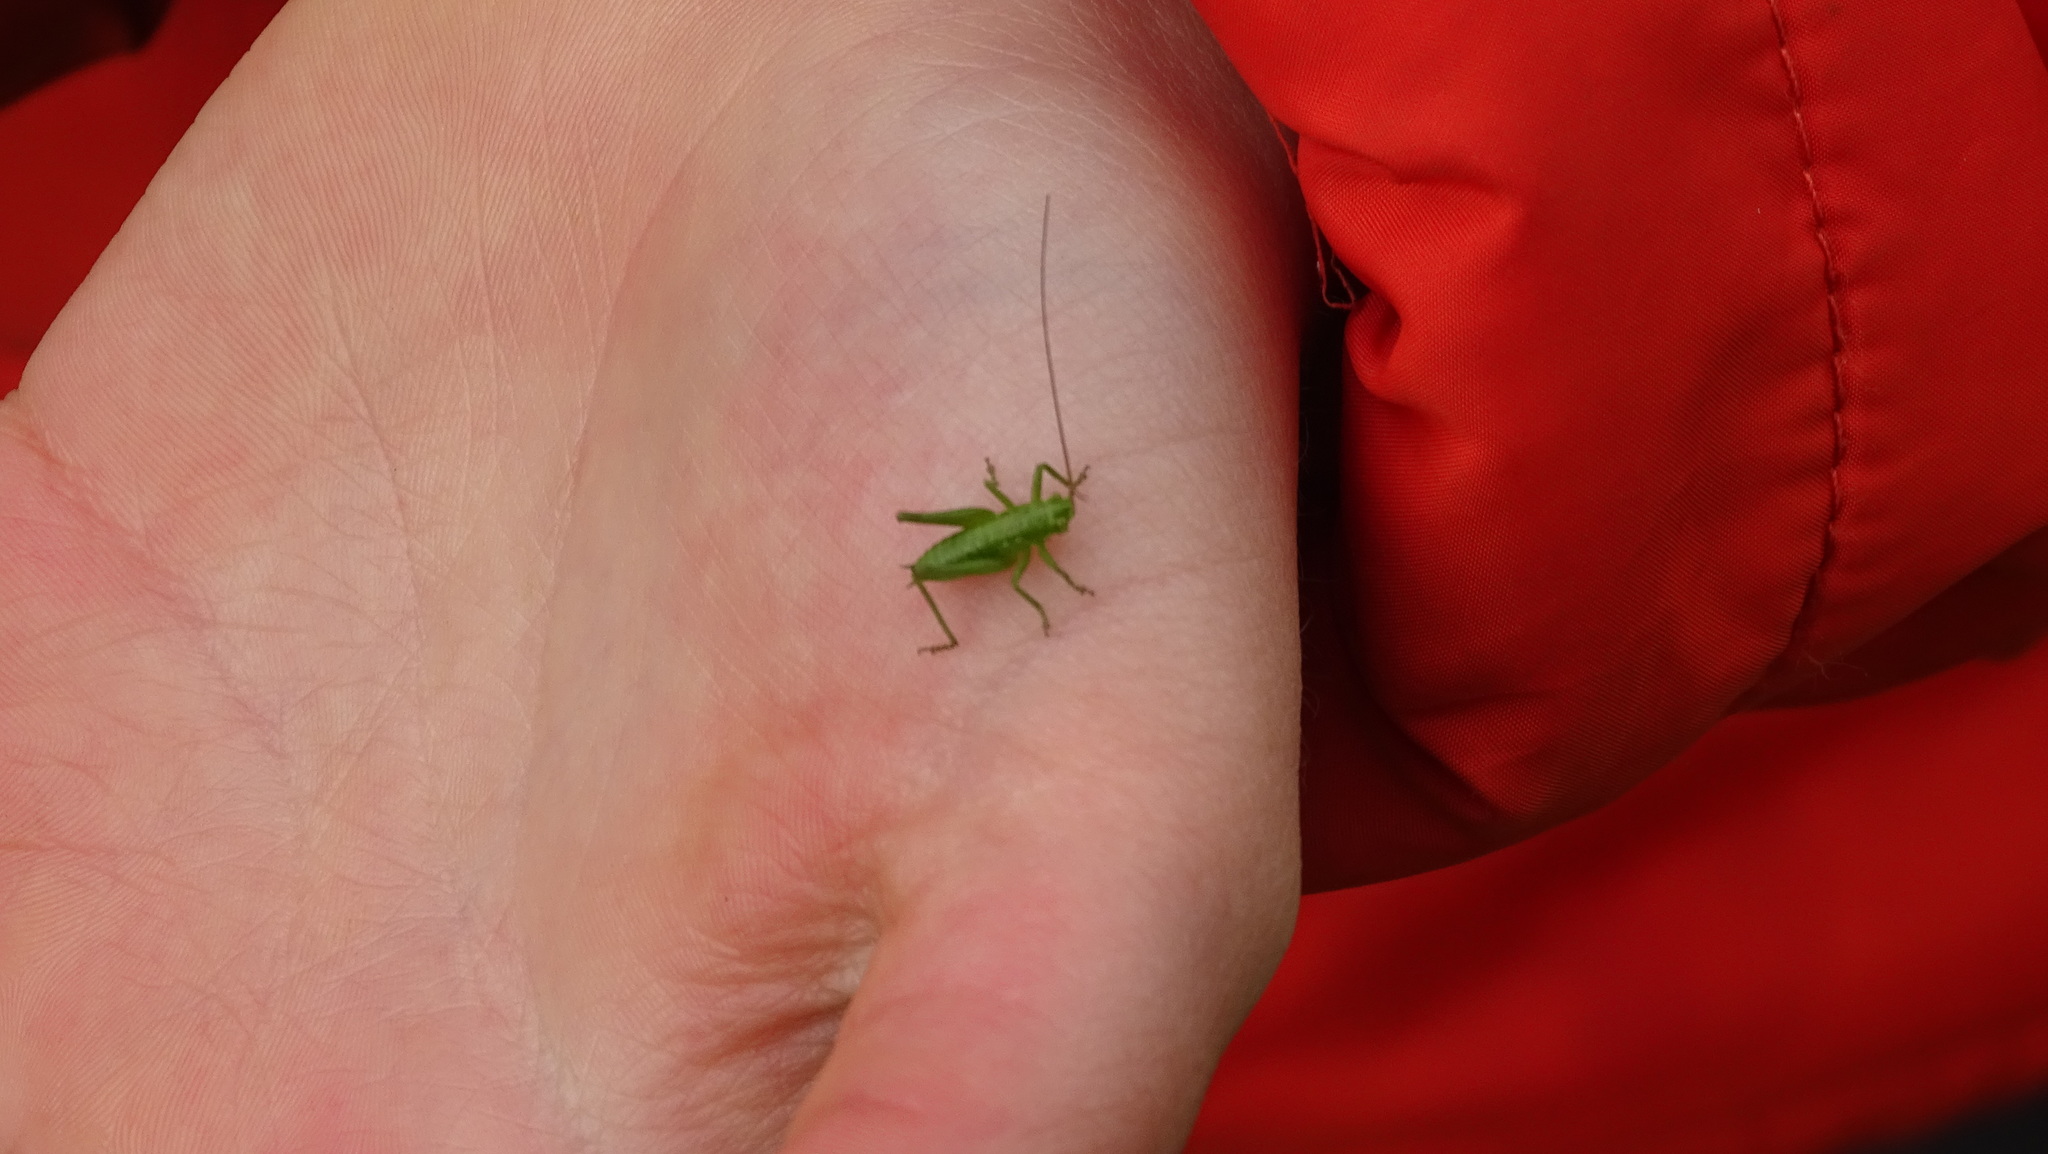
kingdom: Animalia
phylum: Arthropoda
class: Insecta
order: Orthoptera
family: Tettigoniidae
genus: Tettigonia
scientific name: Tettigonia viridissima
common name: Great green bush-cricket
